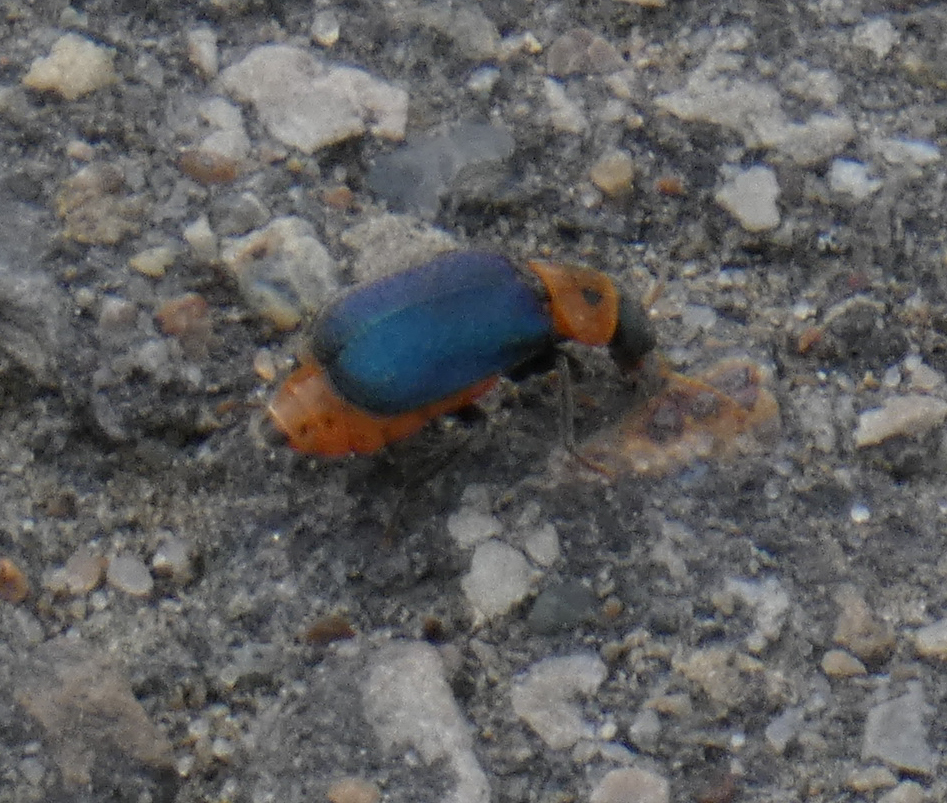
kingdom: Animalia
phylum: Arthropoda
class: Insecta
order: Coleoptera
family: Melyridae
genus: Collops
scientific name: Collops bipunctatus
